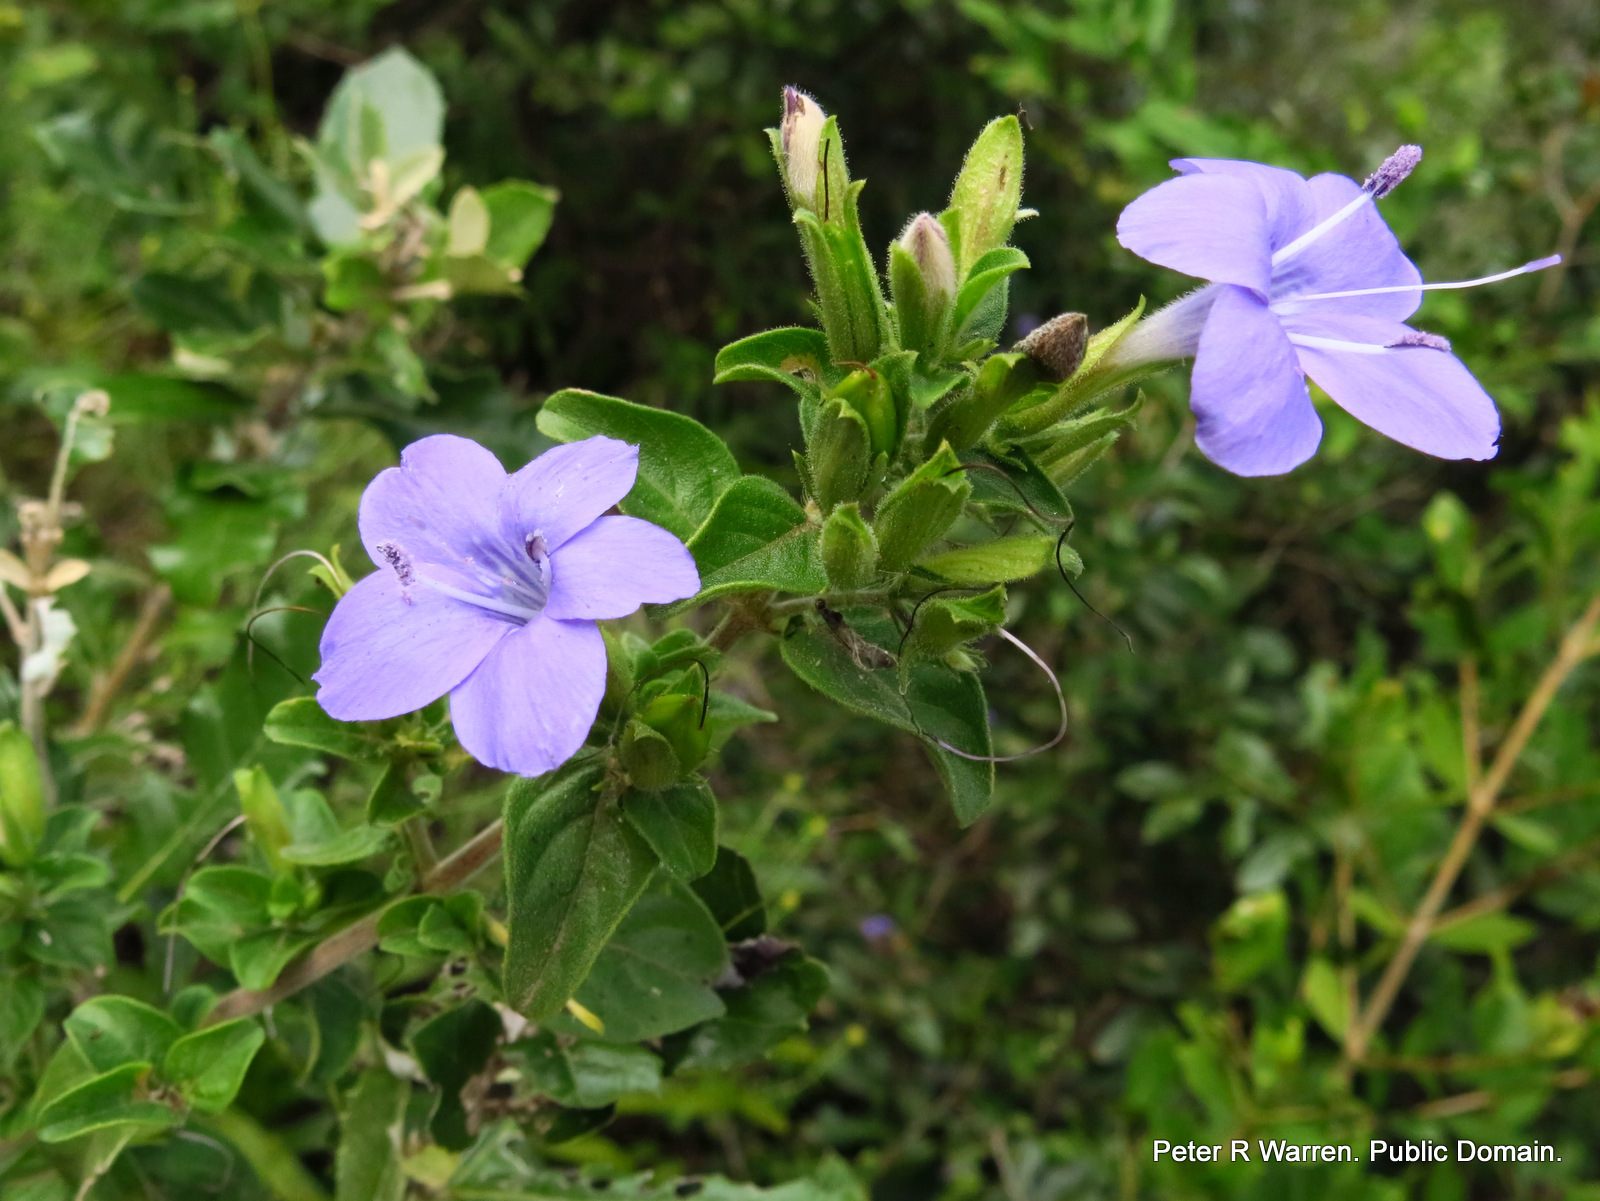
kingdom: Plantae
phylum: Tracheophyta
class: Magnoliopsida
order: Lamiales
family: Acanthaceae
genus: Barleria
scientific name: Barleria obtusa
